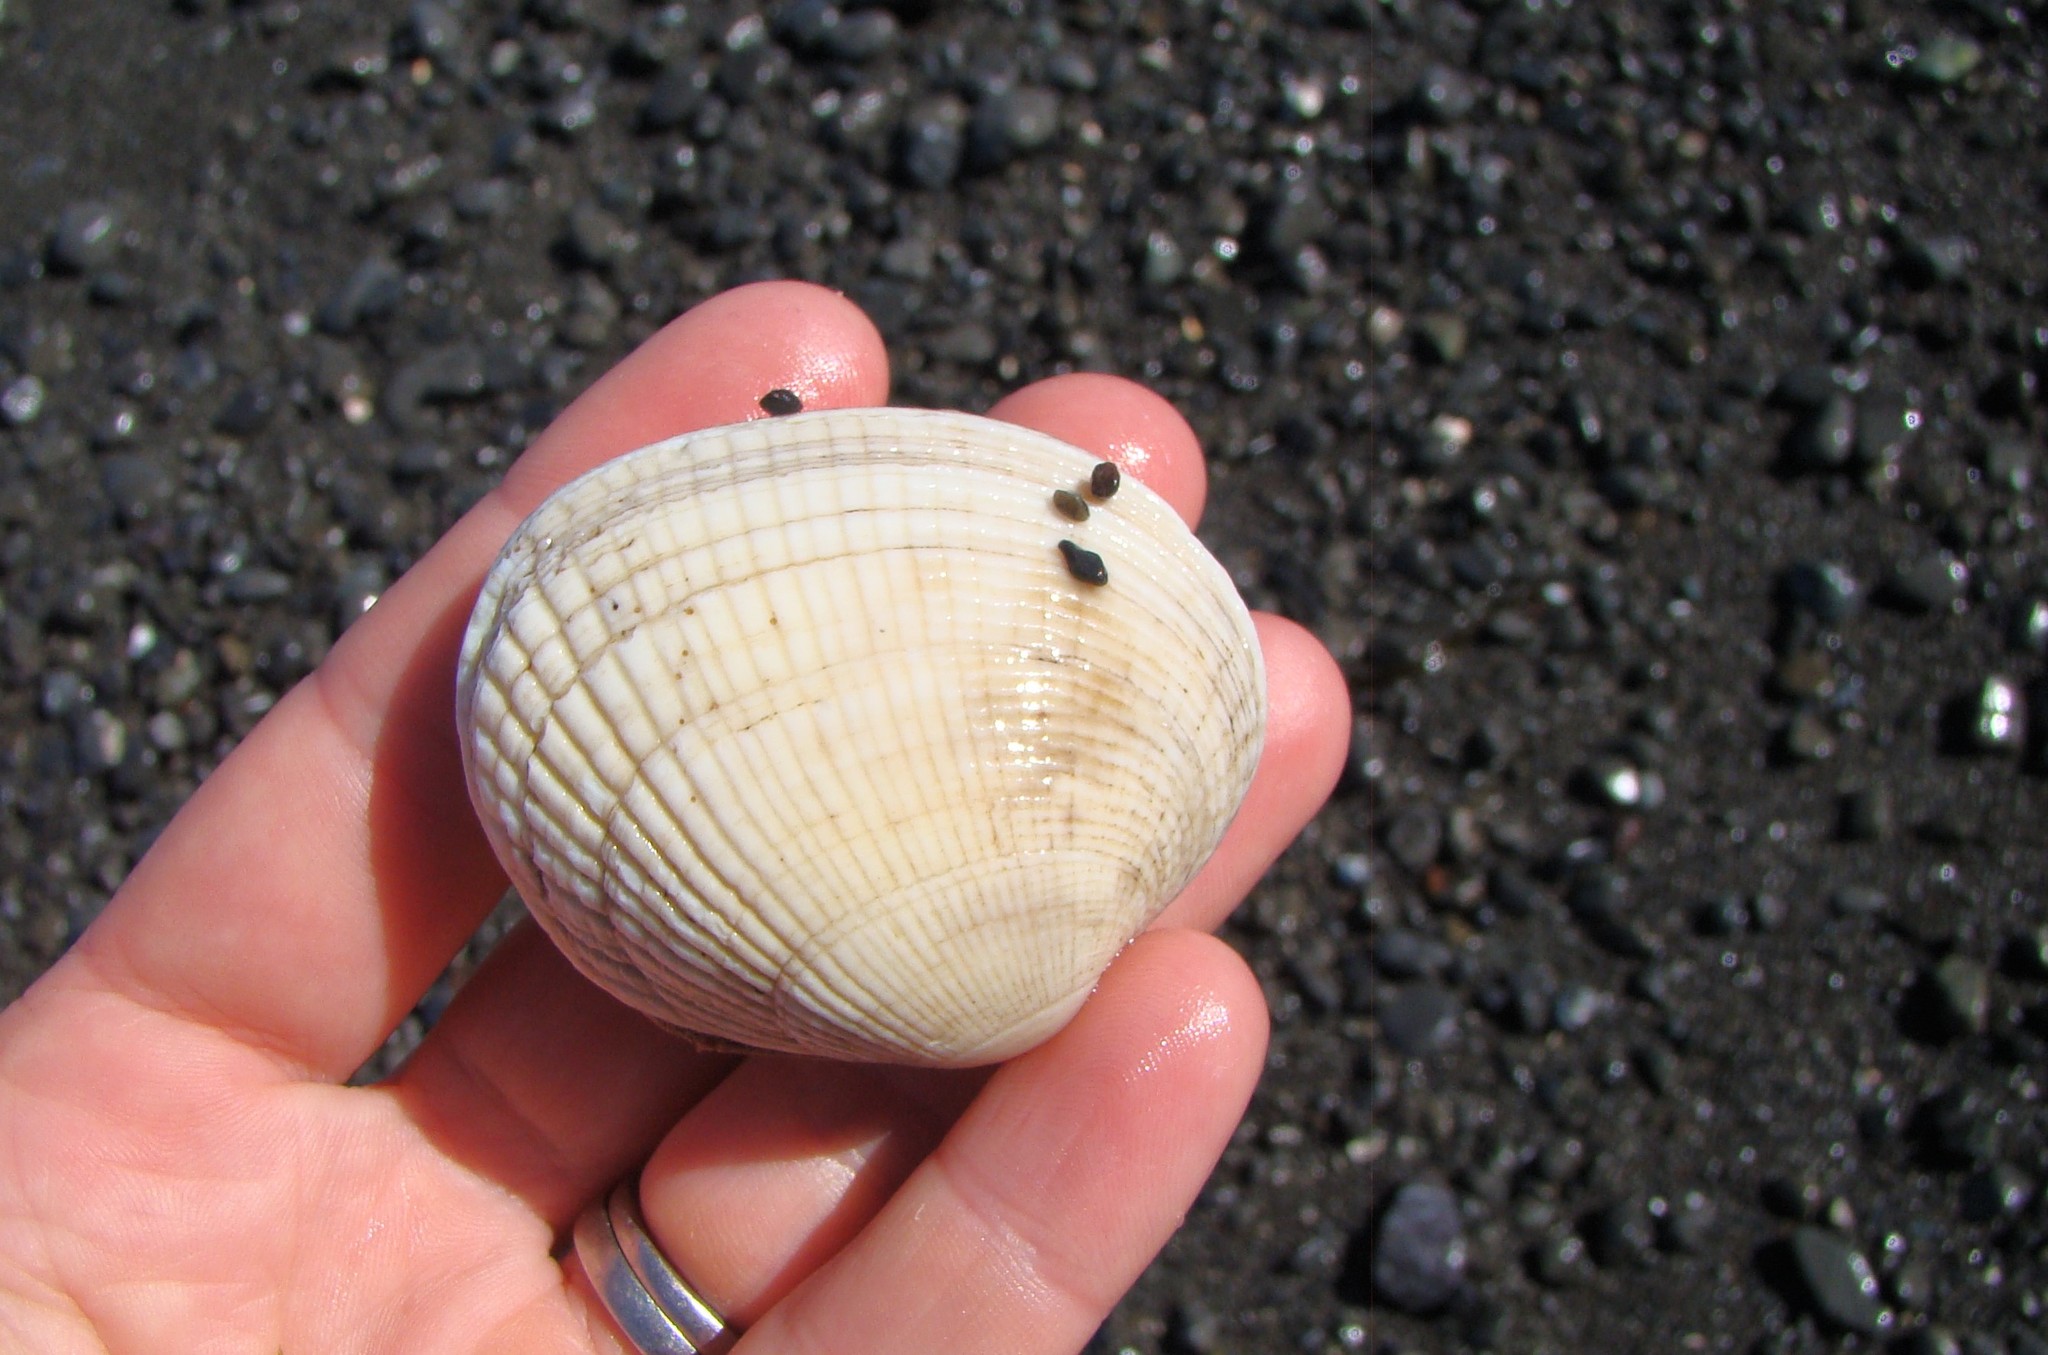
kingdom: Animalia
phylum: Mollusca
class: Bivalvia
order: Venerida
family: Veneridae
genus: Leukoma
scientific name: Leukoma crassicosta
